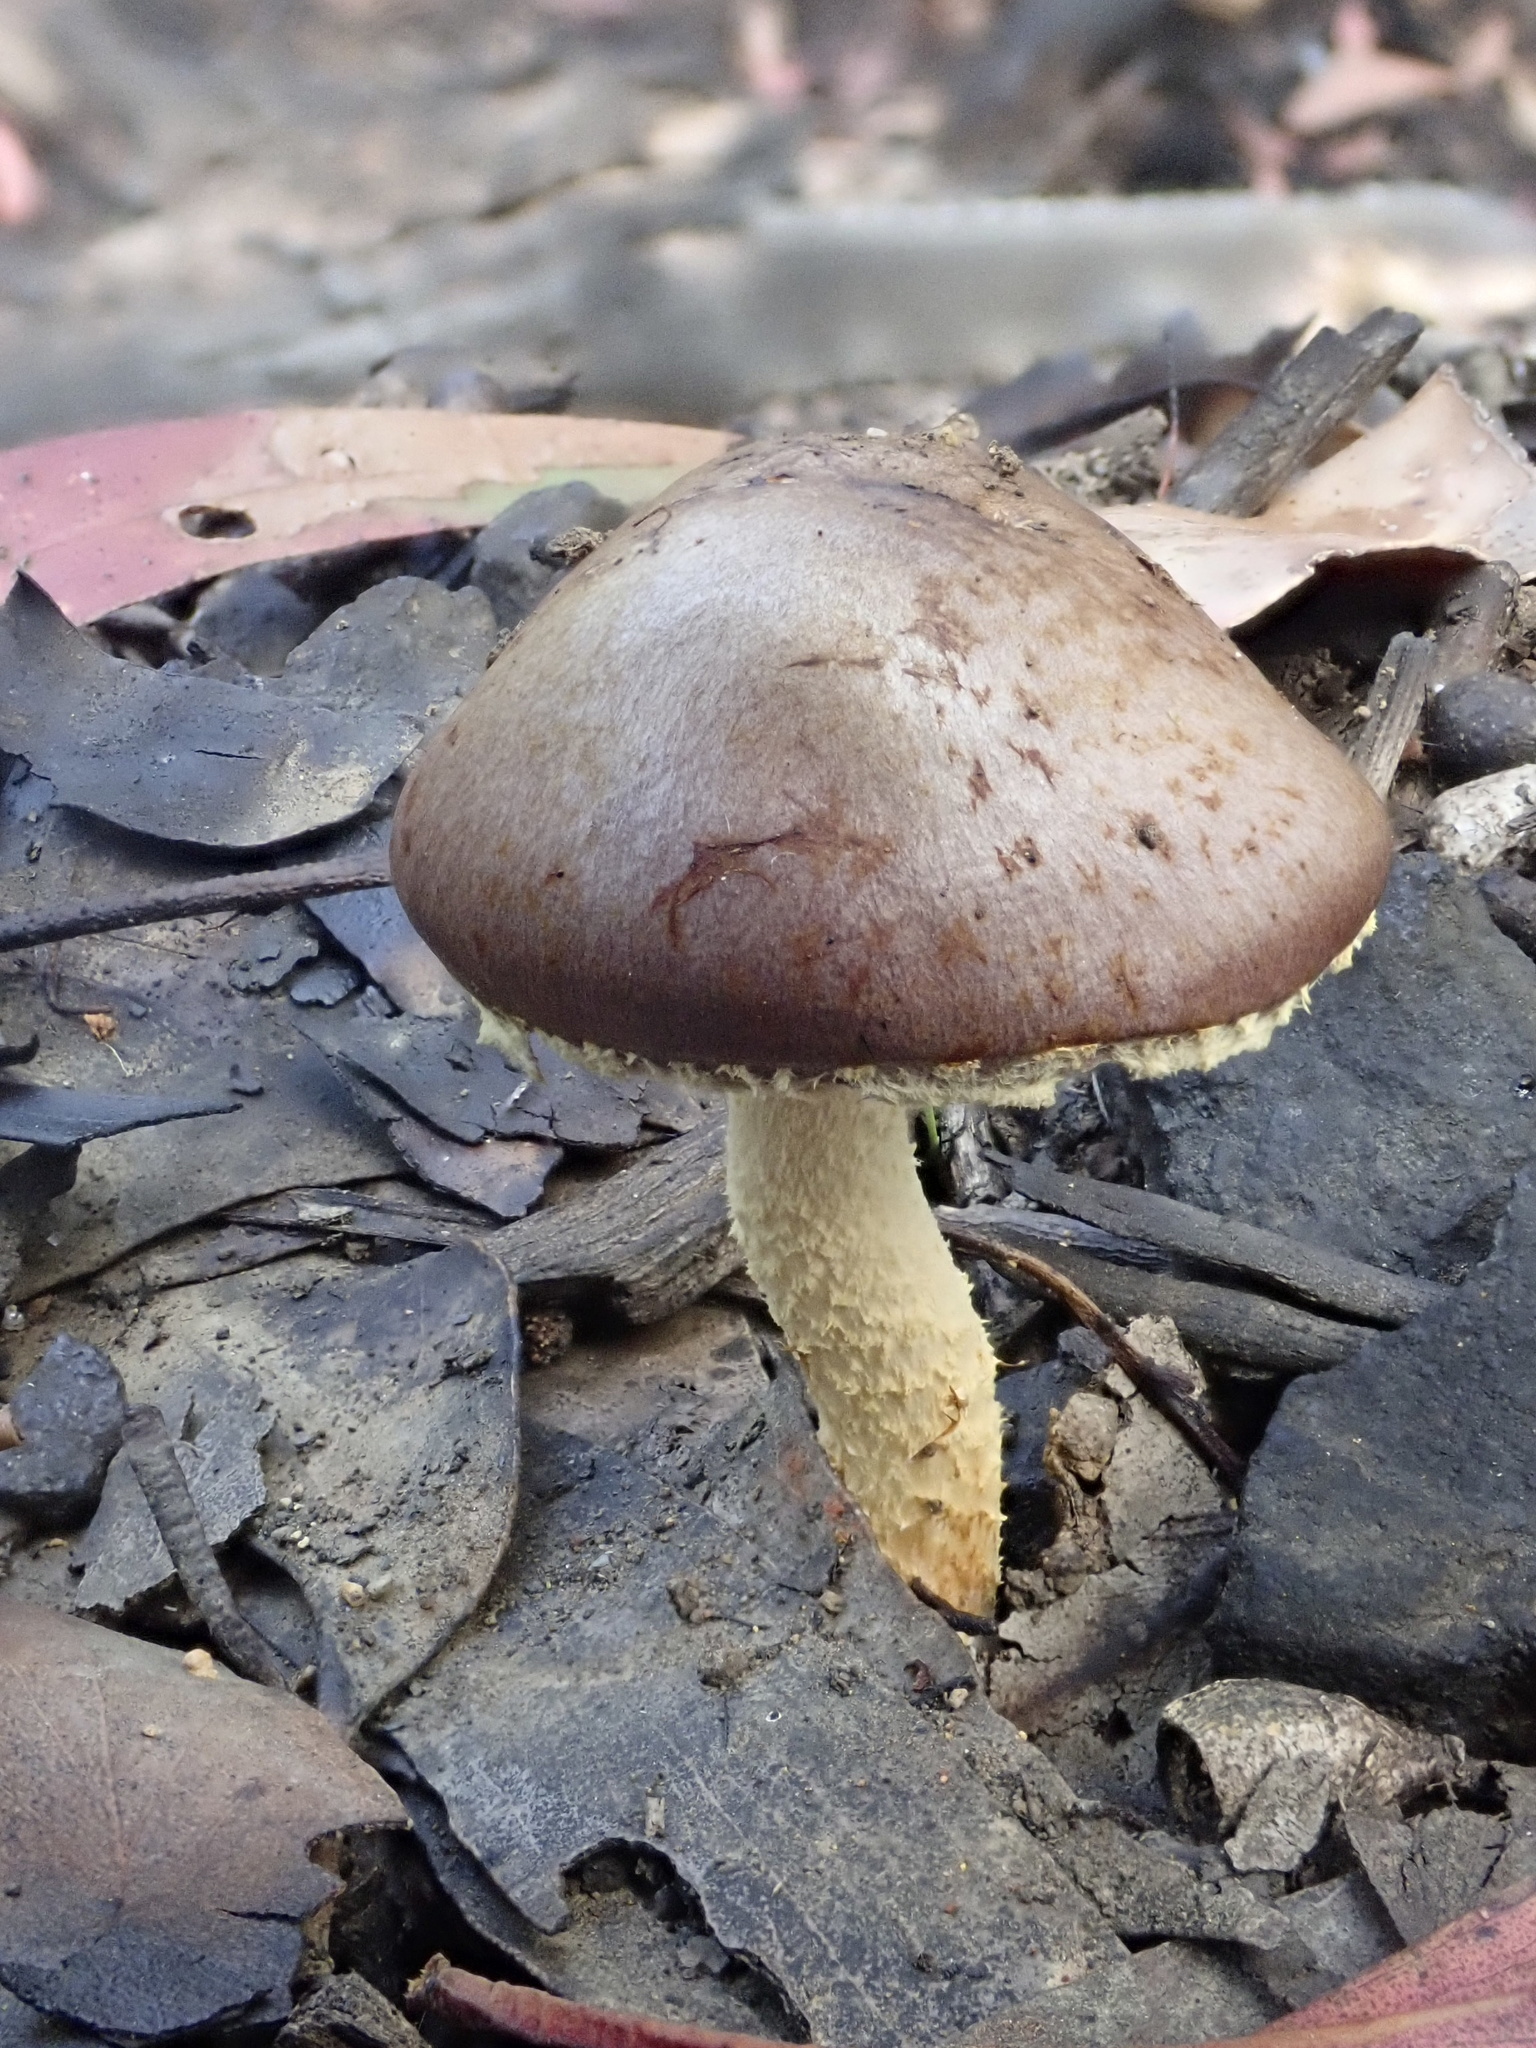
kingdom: Fungi
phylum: Basidiomycota
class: Agaricomycetes
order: Agaricales
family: Hymenogastraceae
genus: Psilocybe
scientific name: Psilocybe formosa
